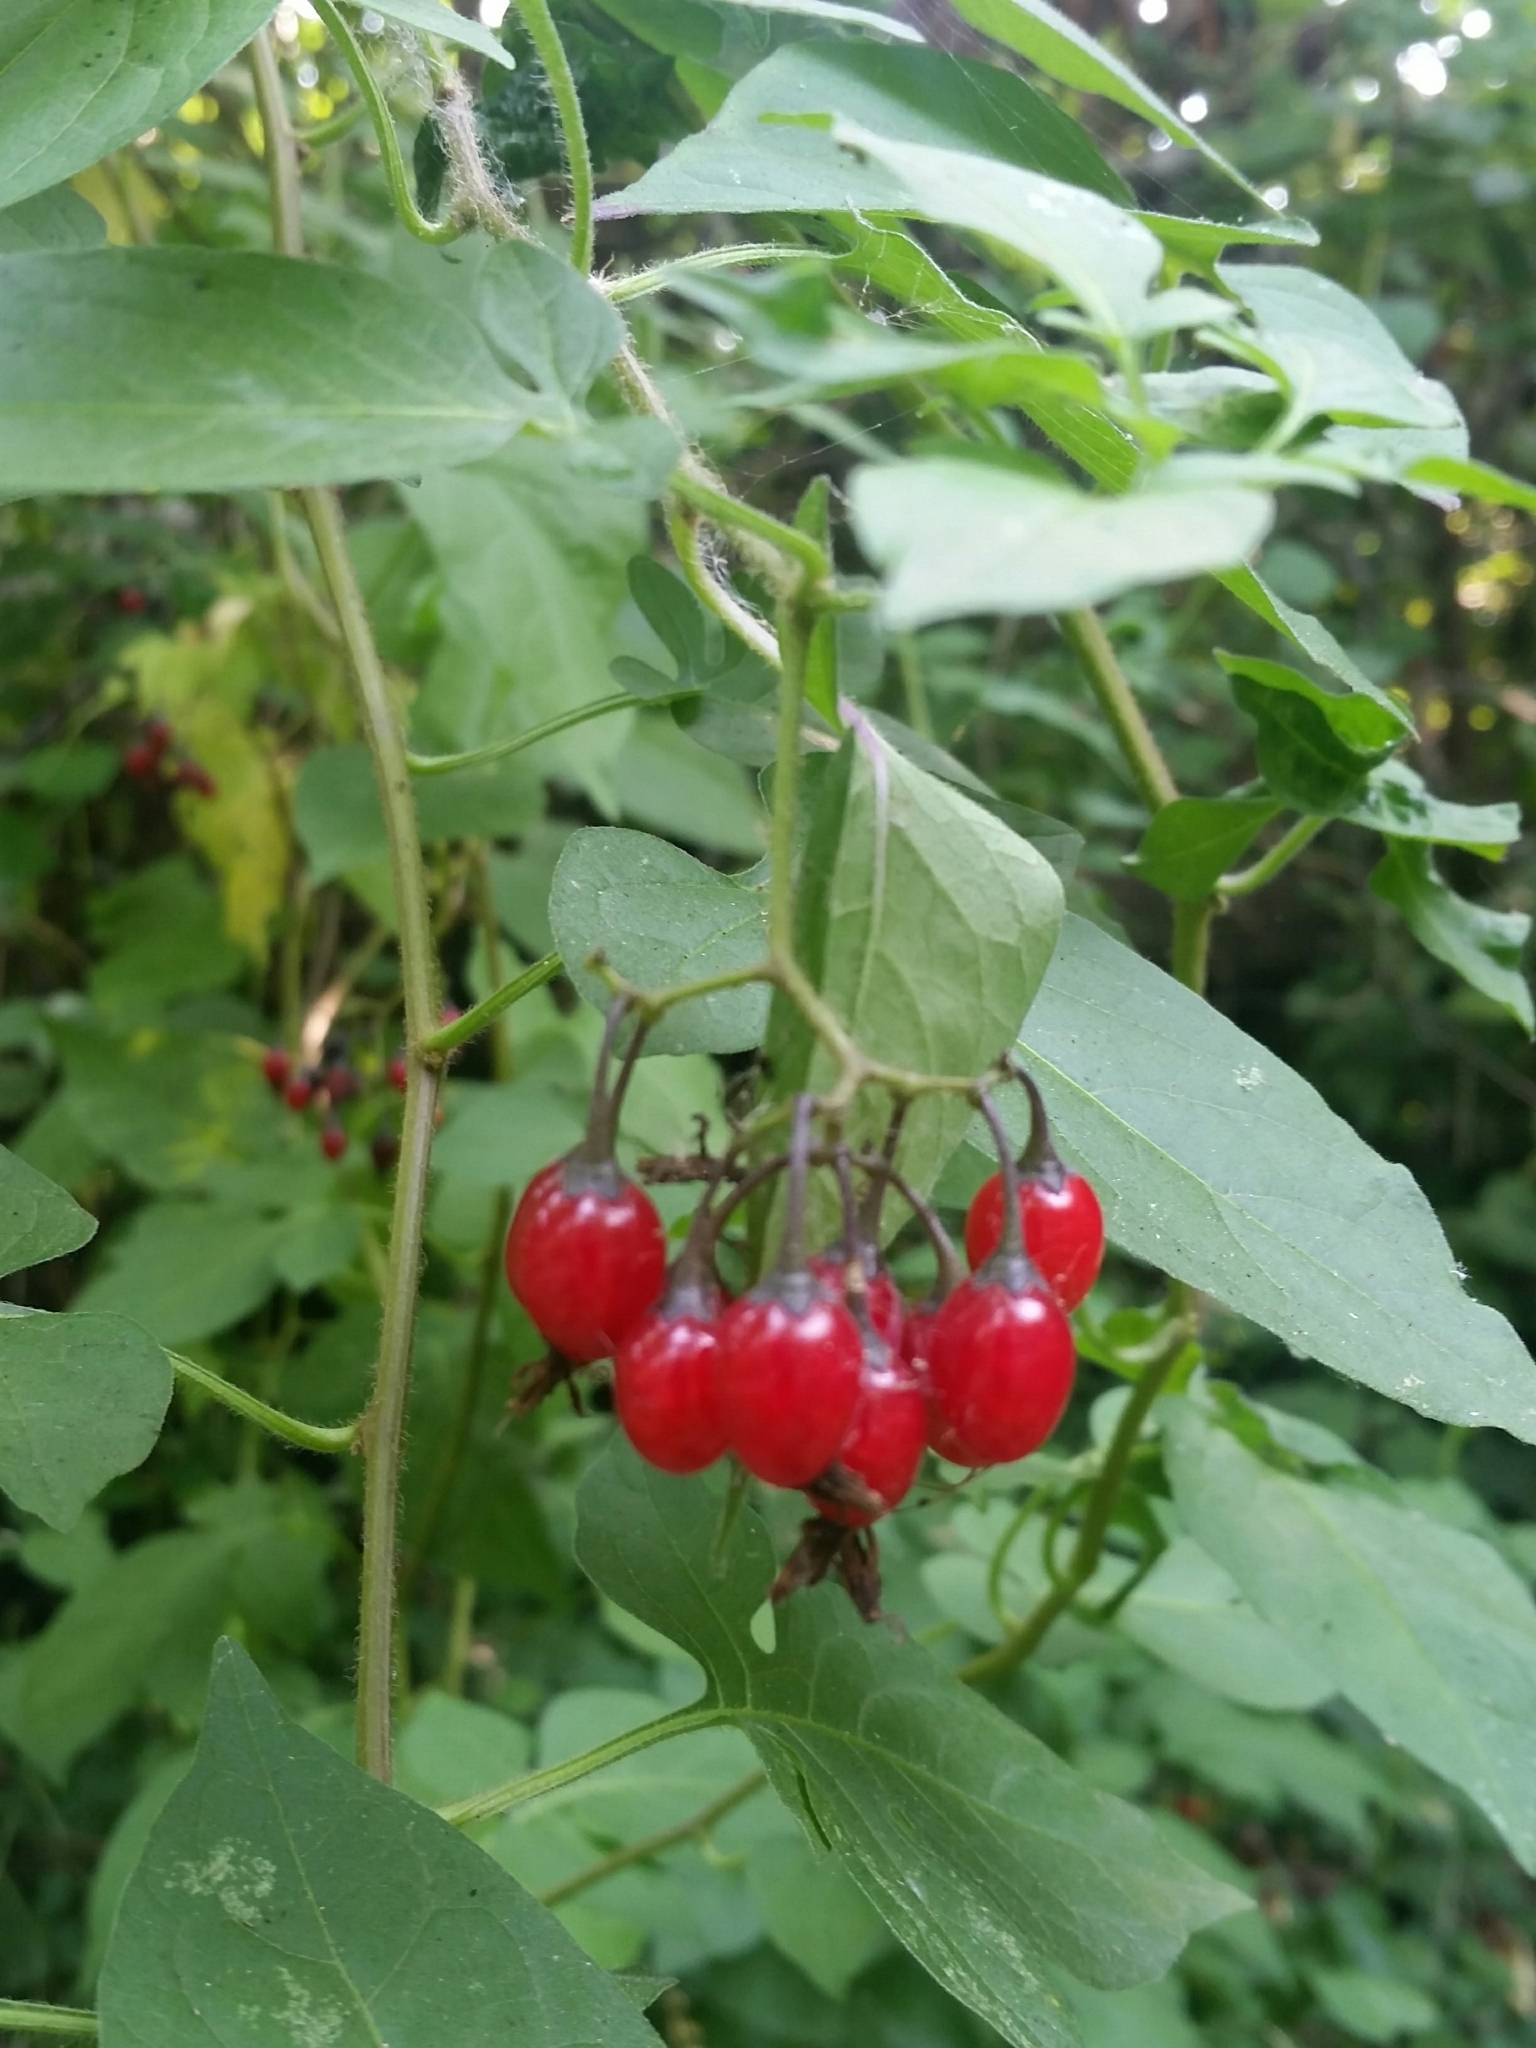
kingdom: Plantae
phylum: Tracheophyta
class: Magnoliopsida
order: Solanales
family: Solanaceae
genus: Solanum
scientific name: Solanum dulcamara
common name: Climbing nightshade
